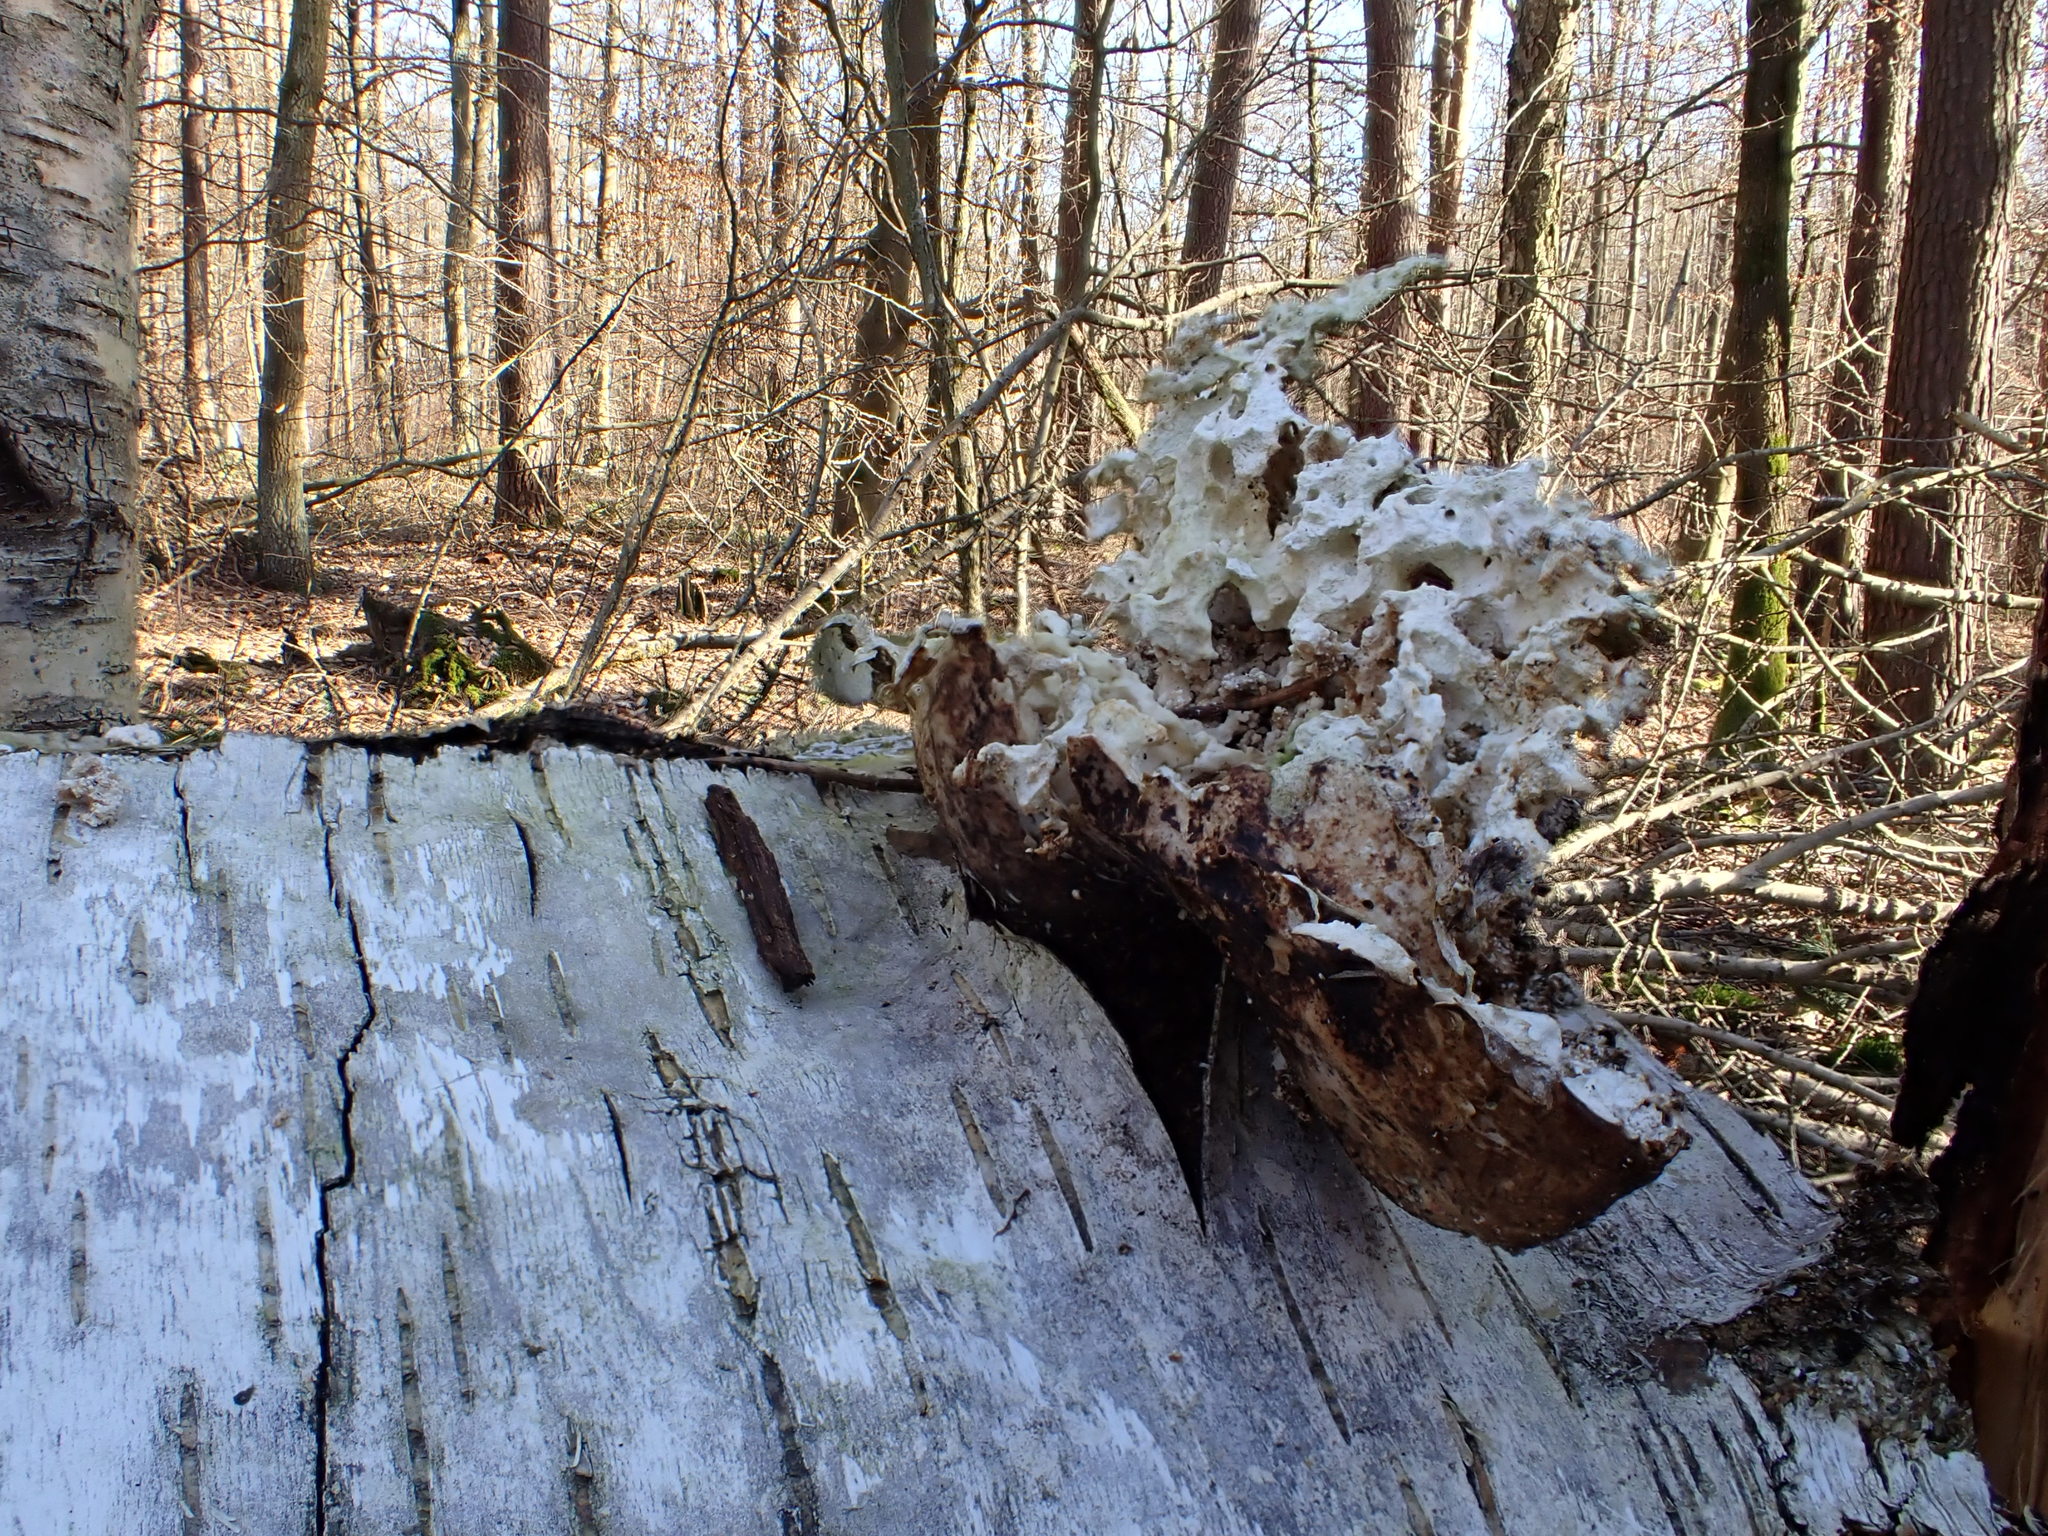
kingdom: Fungi
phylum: Basidiomycota
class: Agaricomycetes
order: Polyporales
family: Fomitopsidaceae
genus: Fomitopsis
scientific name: Fomitopsis betulina
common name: Birch polypore
